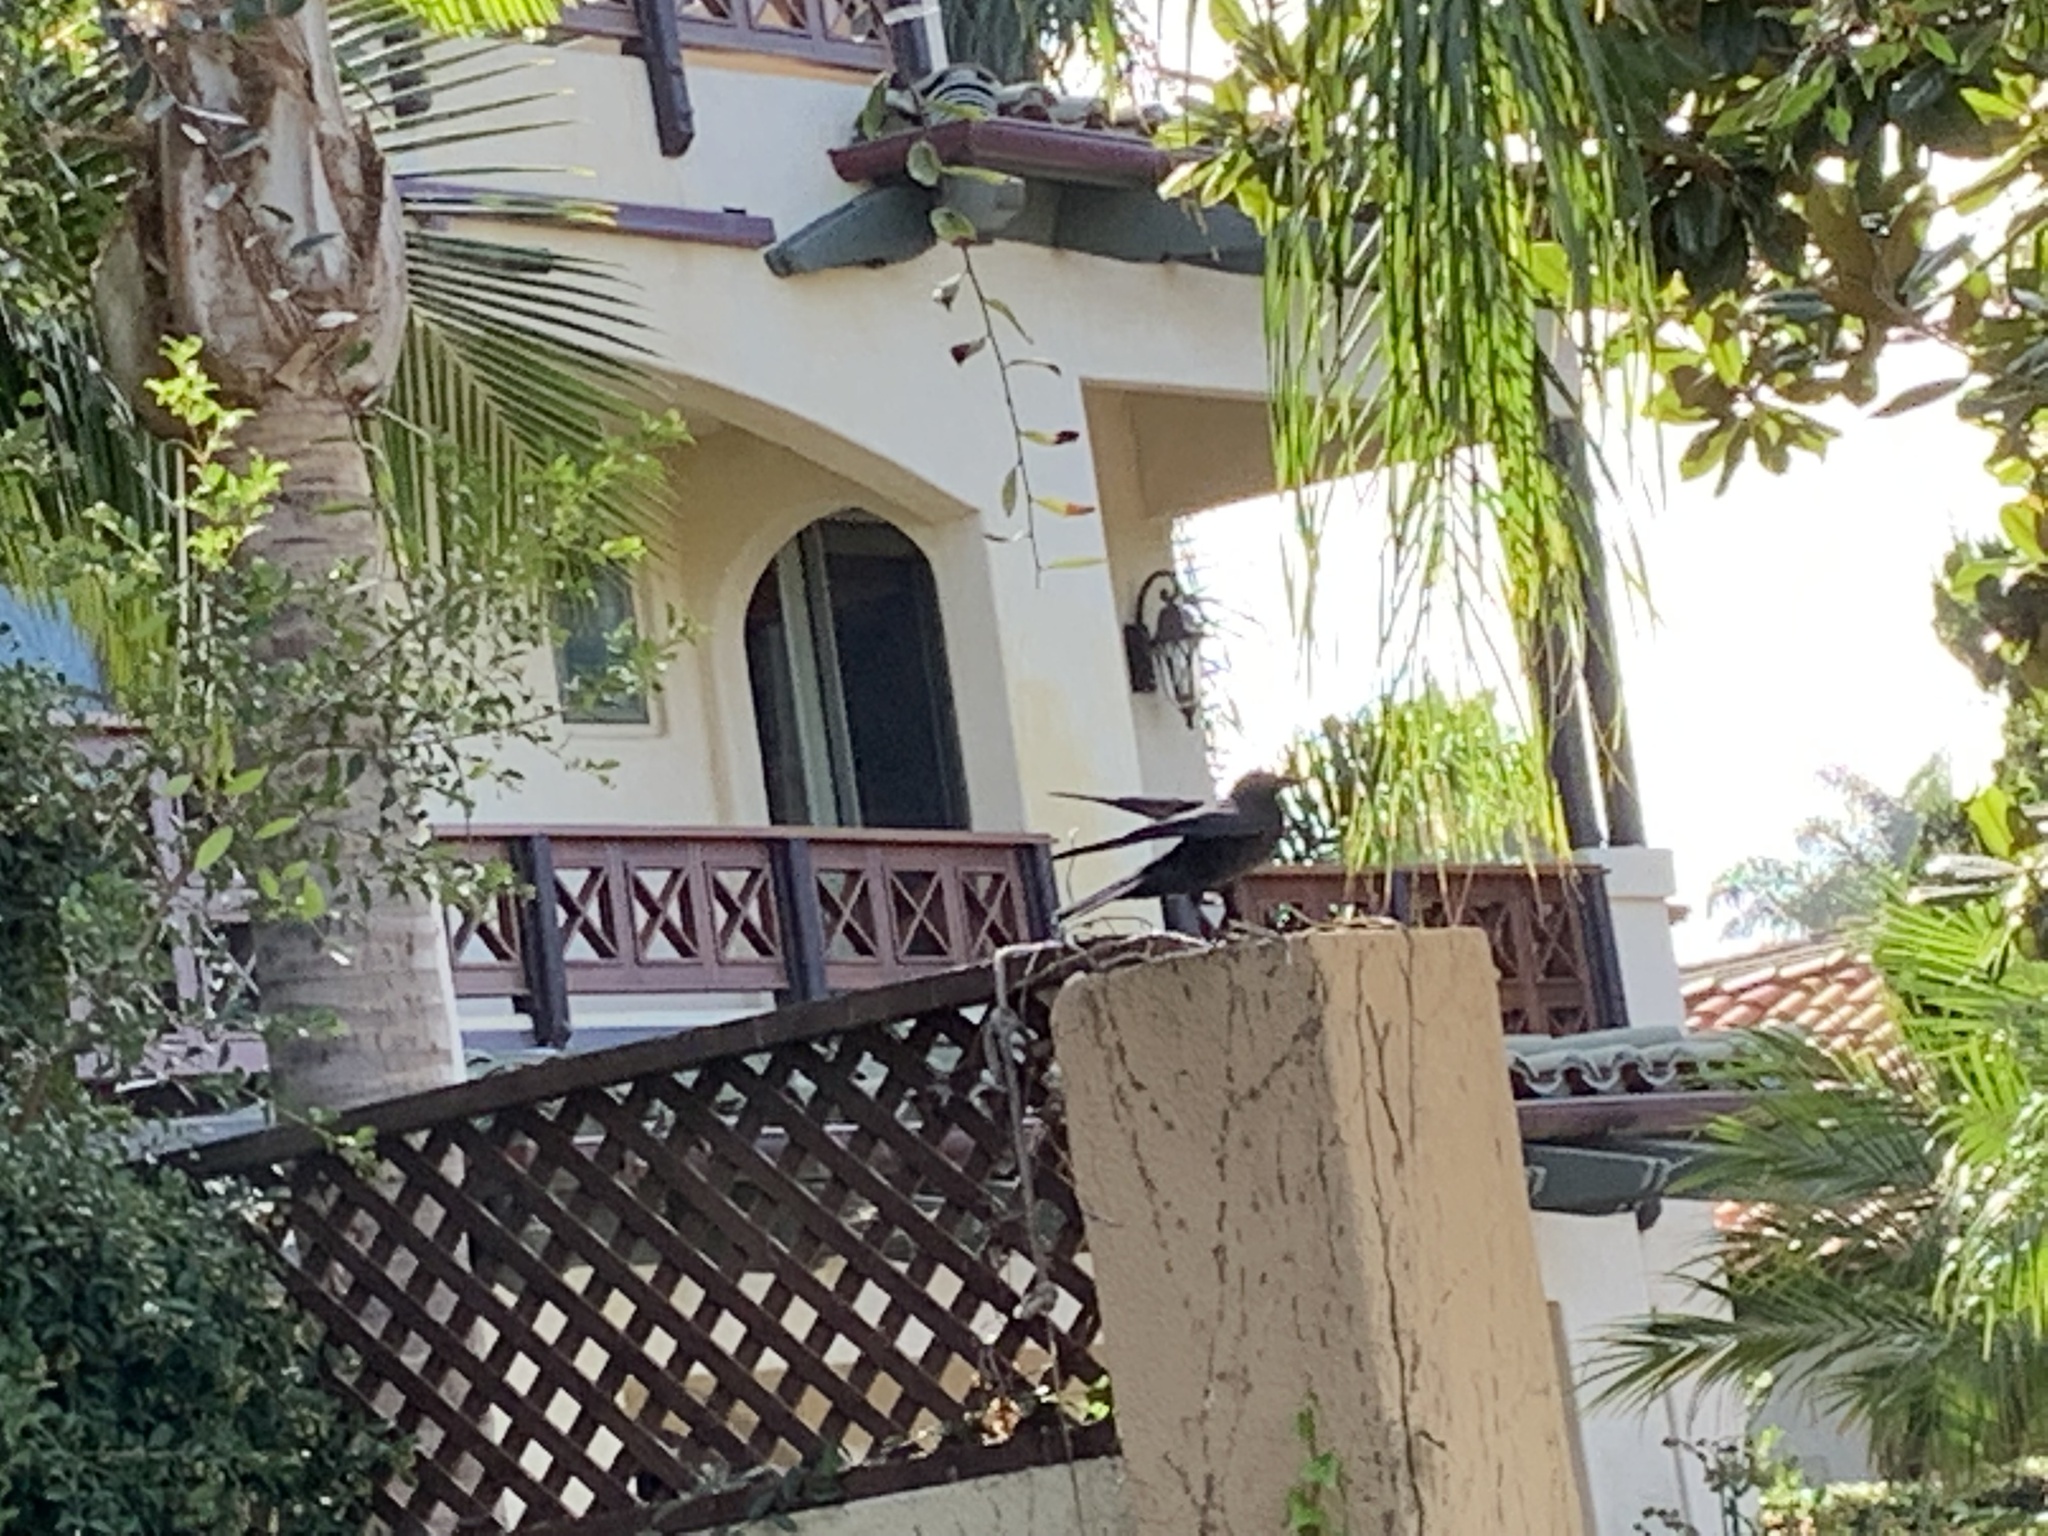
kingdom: Animalia
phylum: Chordata
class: Aves
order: Passeriformes
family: Corvidae
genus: Corvus
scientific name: Corvus brachyrhynchos
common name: American crow
